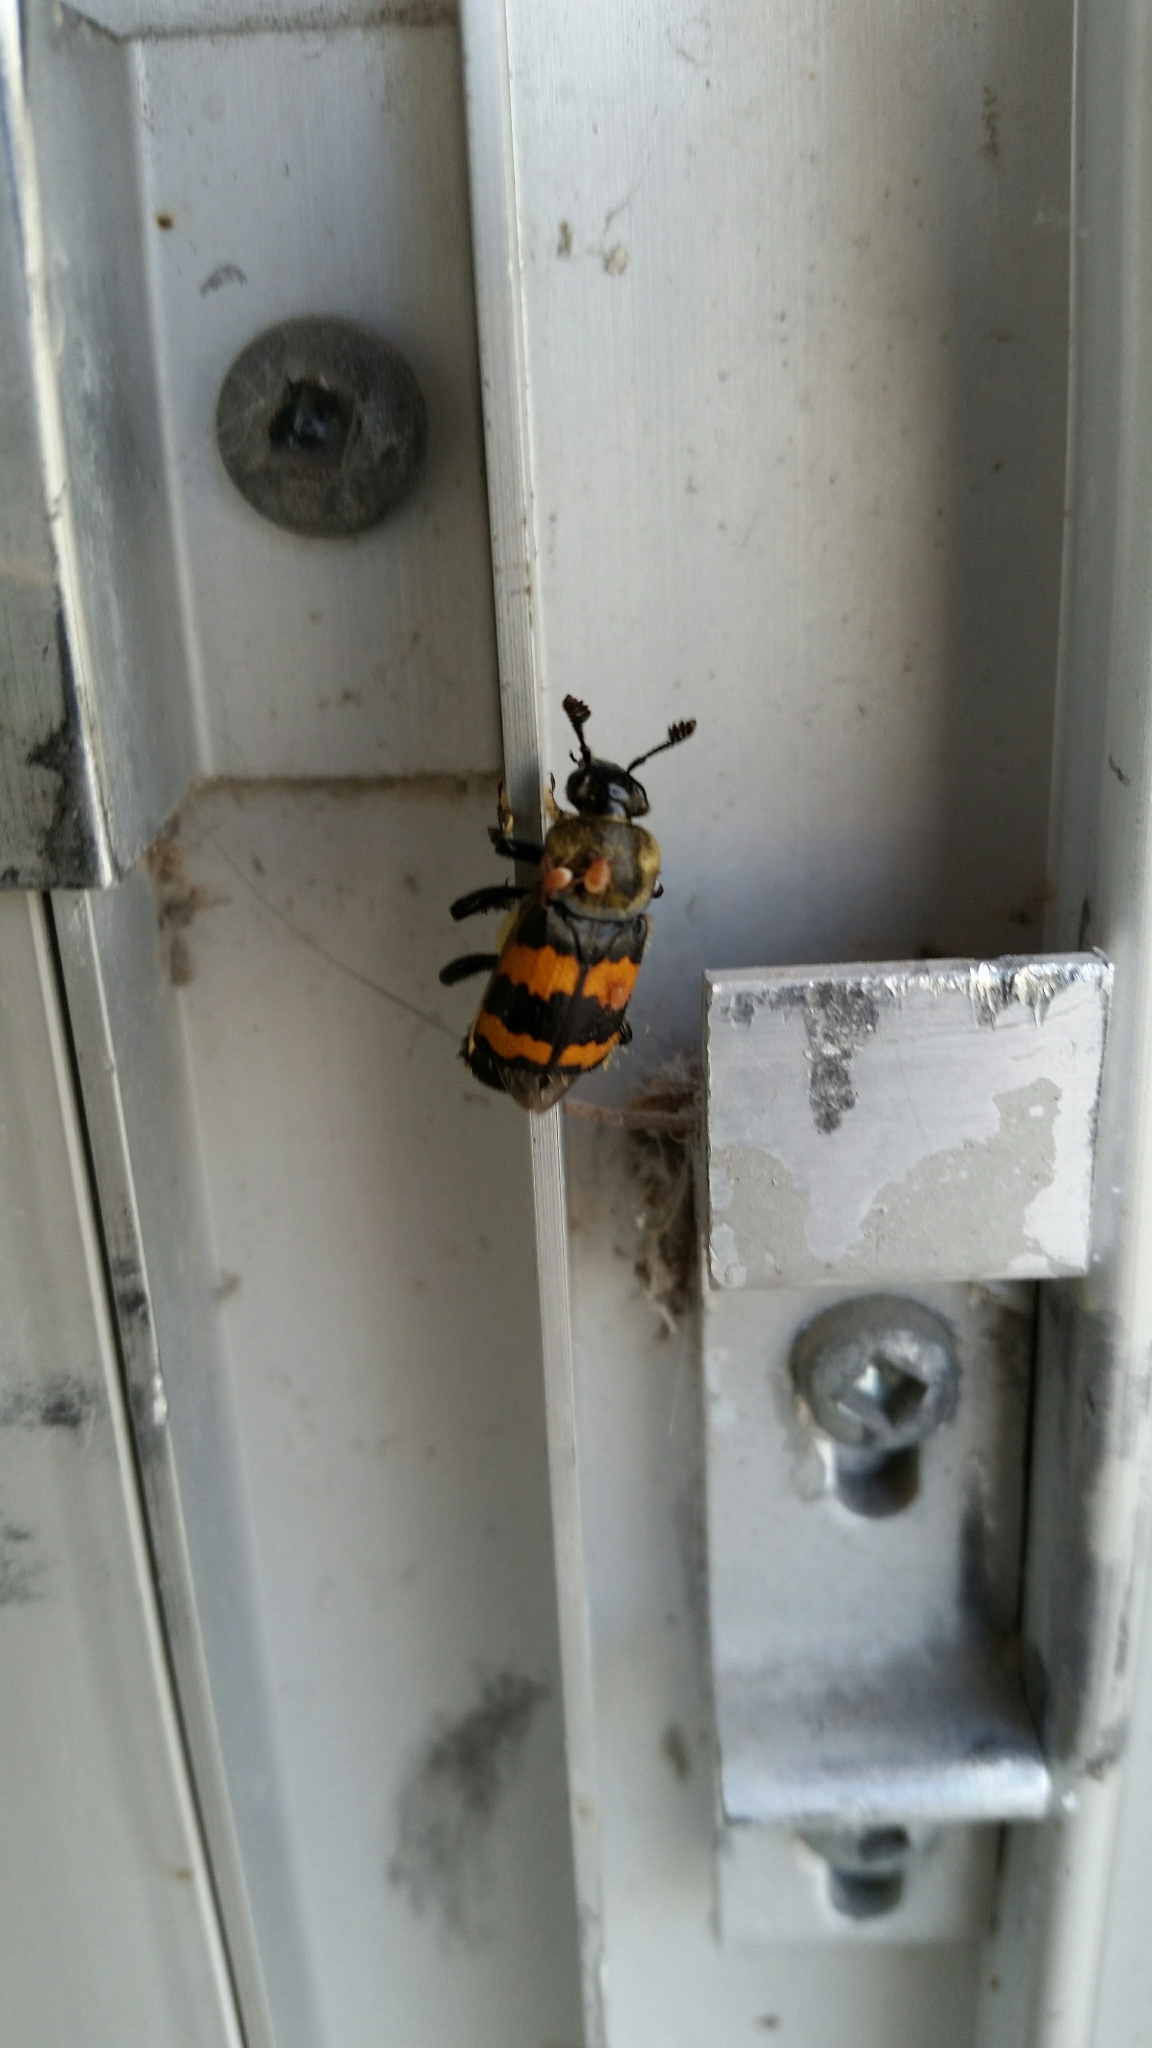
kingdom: Animalia
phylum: Arthropoda
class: Insecta
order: Coleoptera
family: Staphylinidae
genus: Nicrophorus
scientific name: Nicrophorus tomentosus
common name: Tomentose burying beetle
